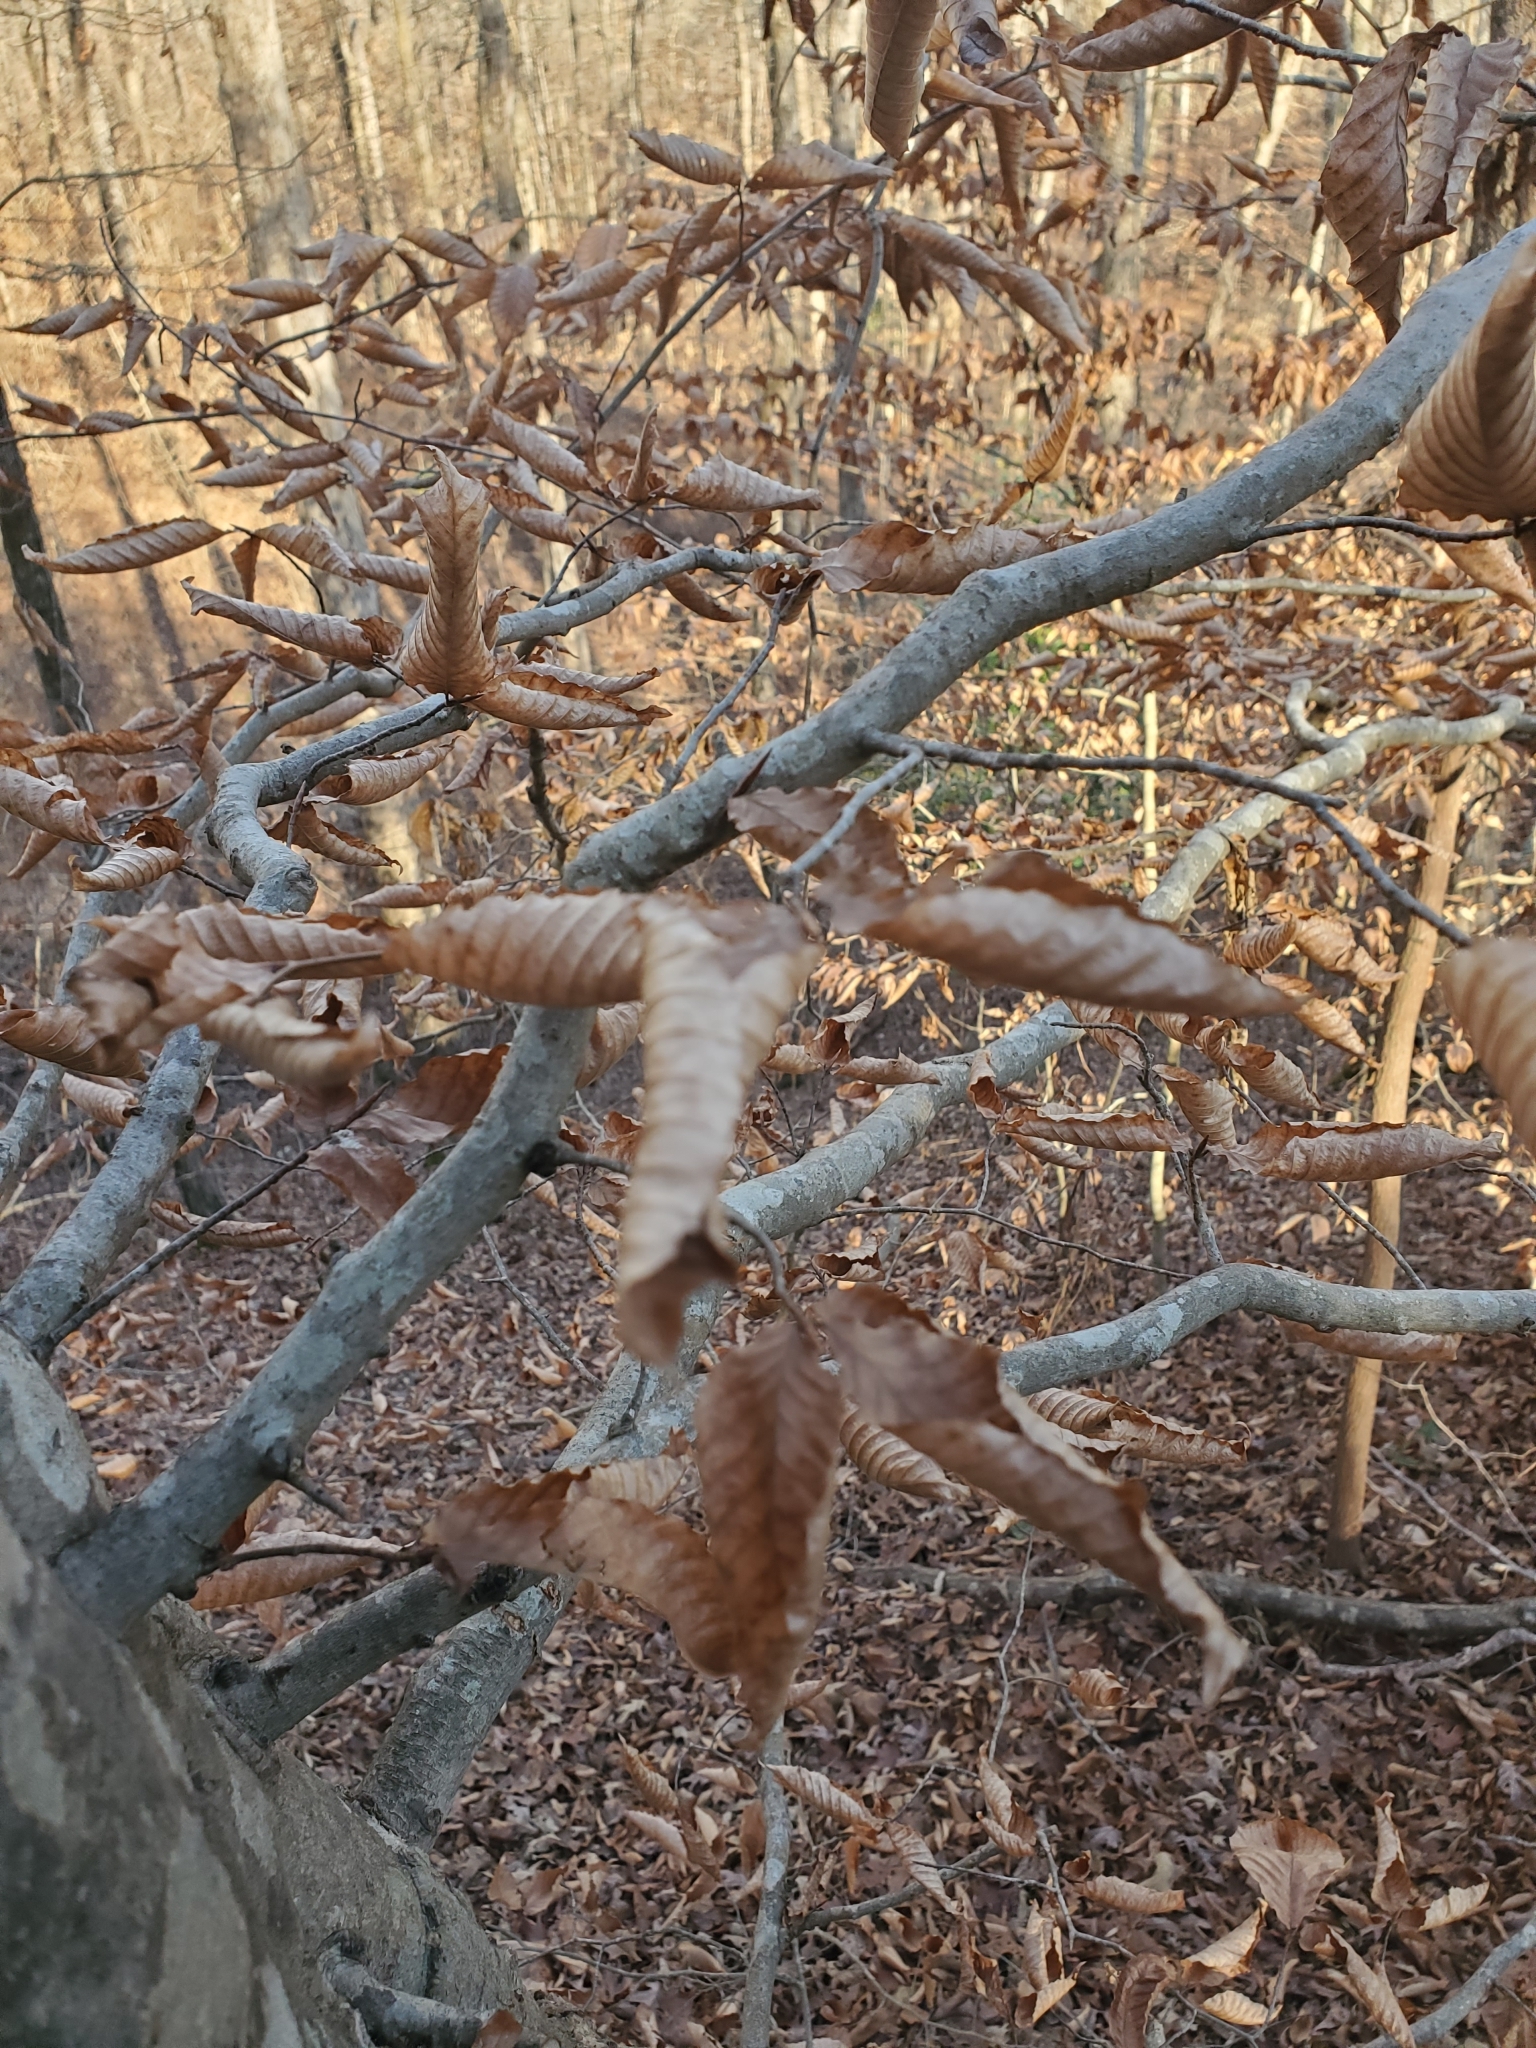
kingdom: Plantae
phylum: Tracheophyta
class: Magnoliopsida
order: Fagales
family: Fagaceae
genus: Fagus
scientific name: Fagus grandifolia
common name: American beech
